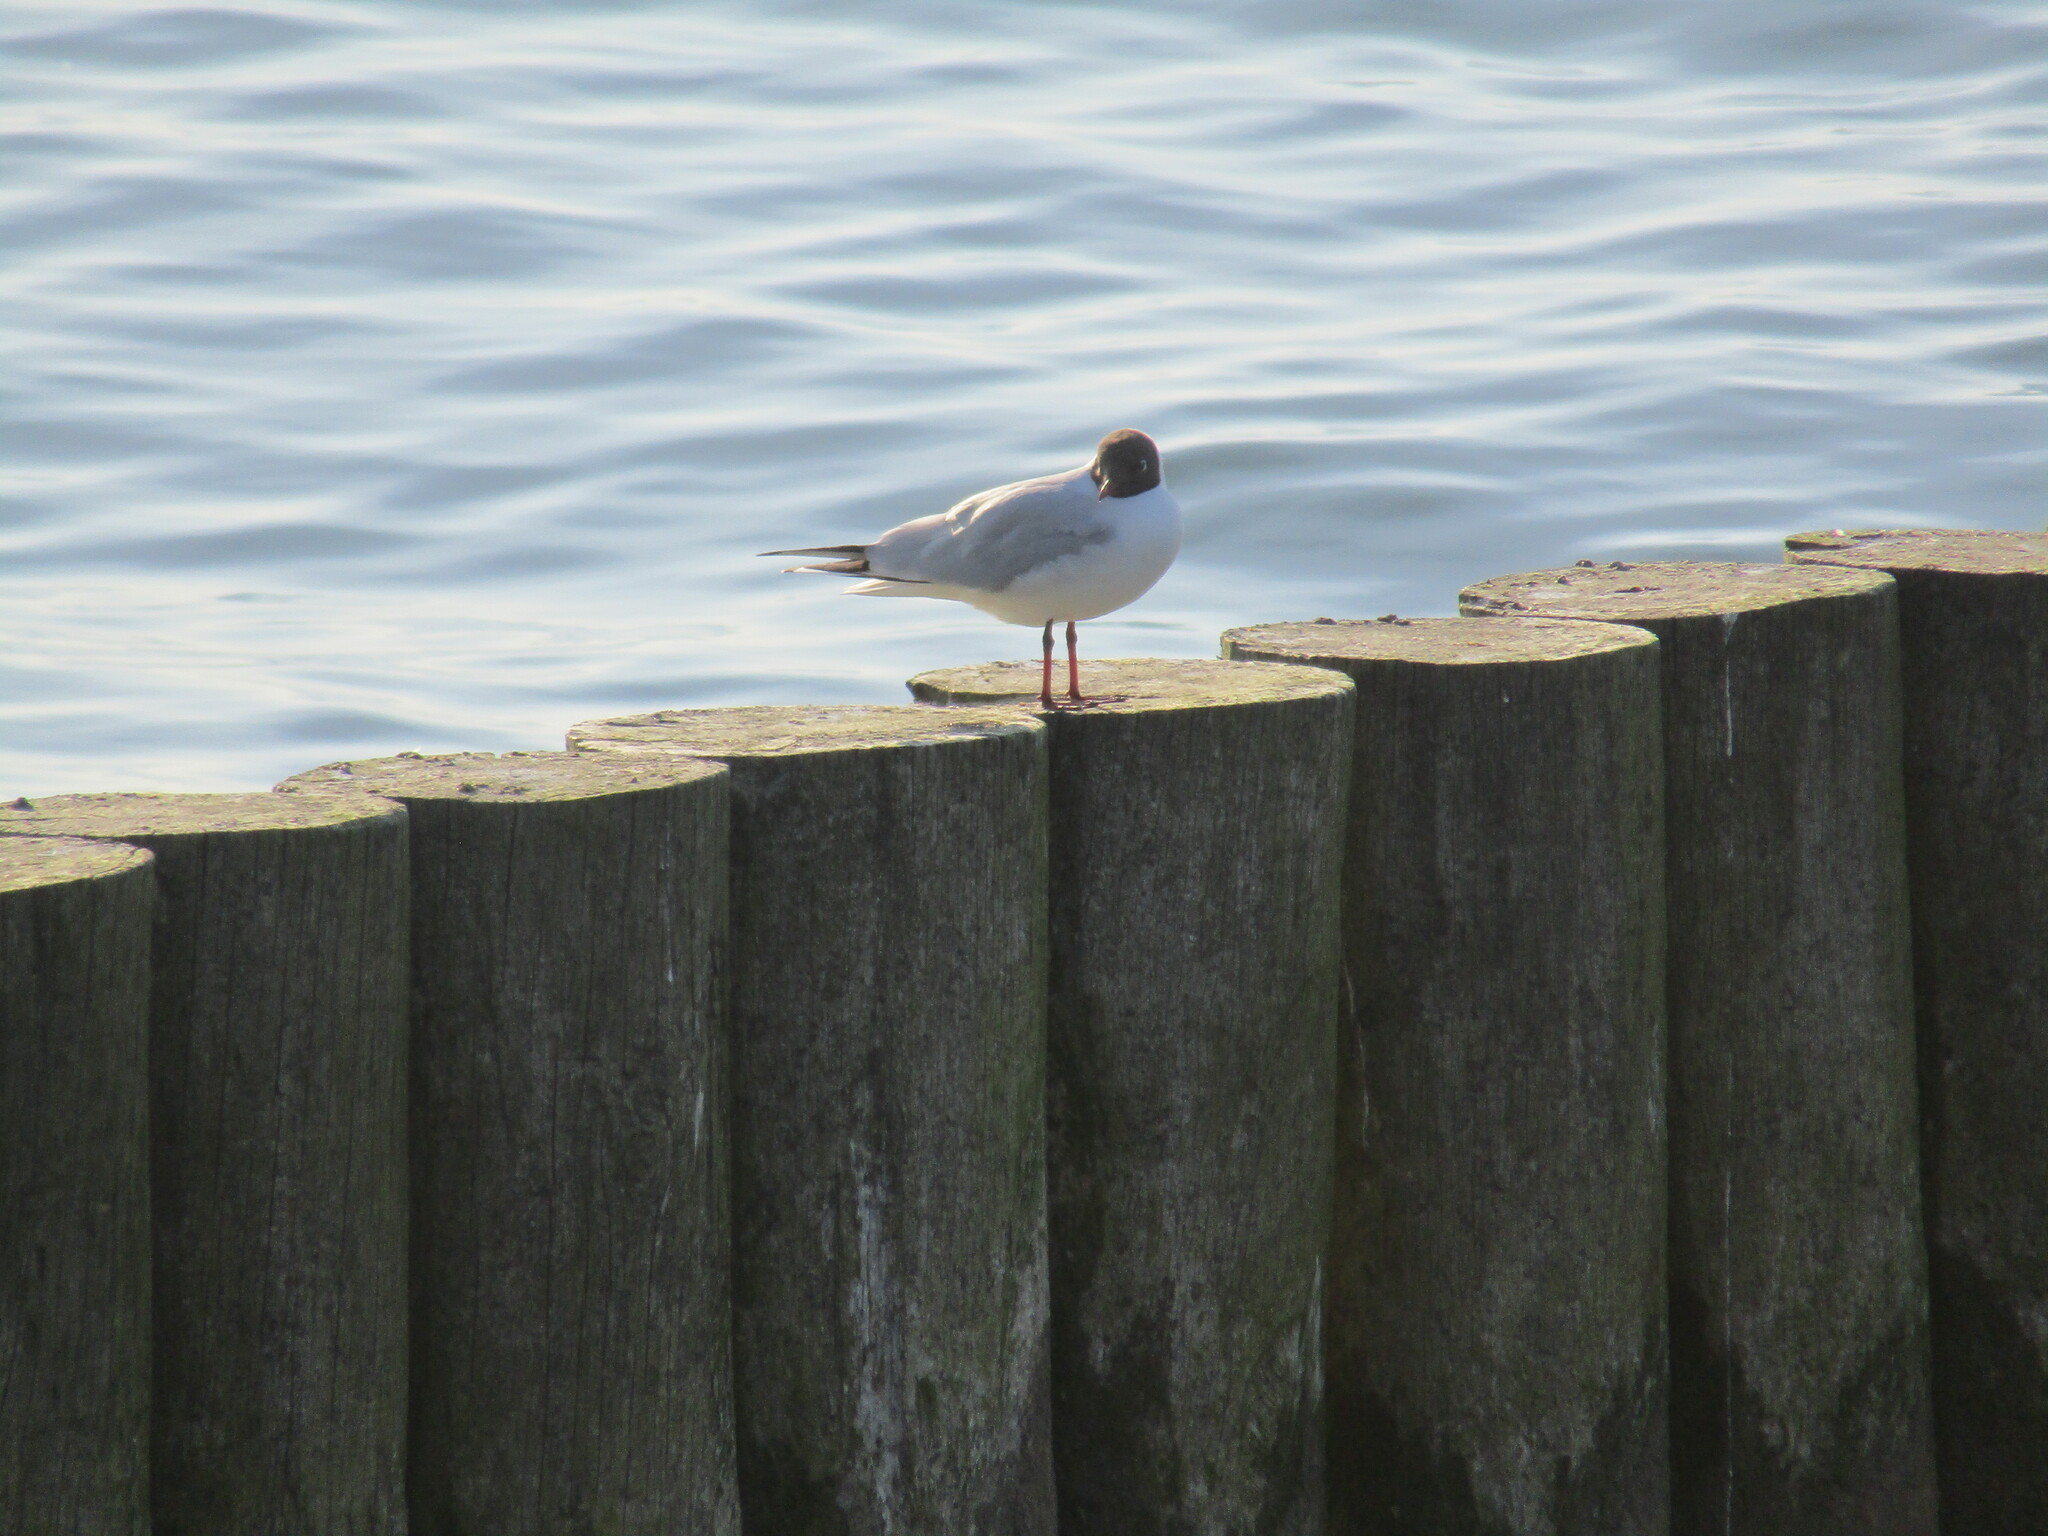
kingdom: Animalia
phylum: Chordata
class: Aves
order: Charadriiformes
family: Laridae
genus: Chroicocephalus
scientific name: Chroicocephalus ridibundus
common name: Black-headed gull
